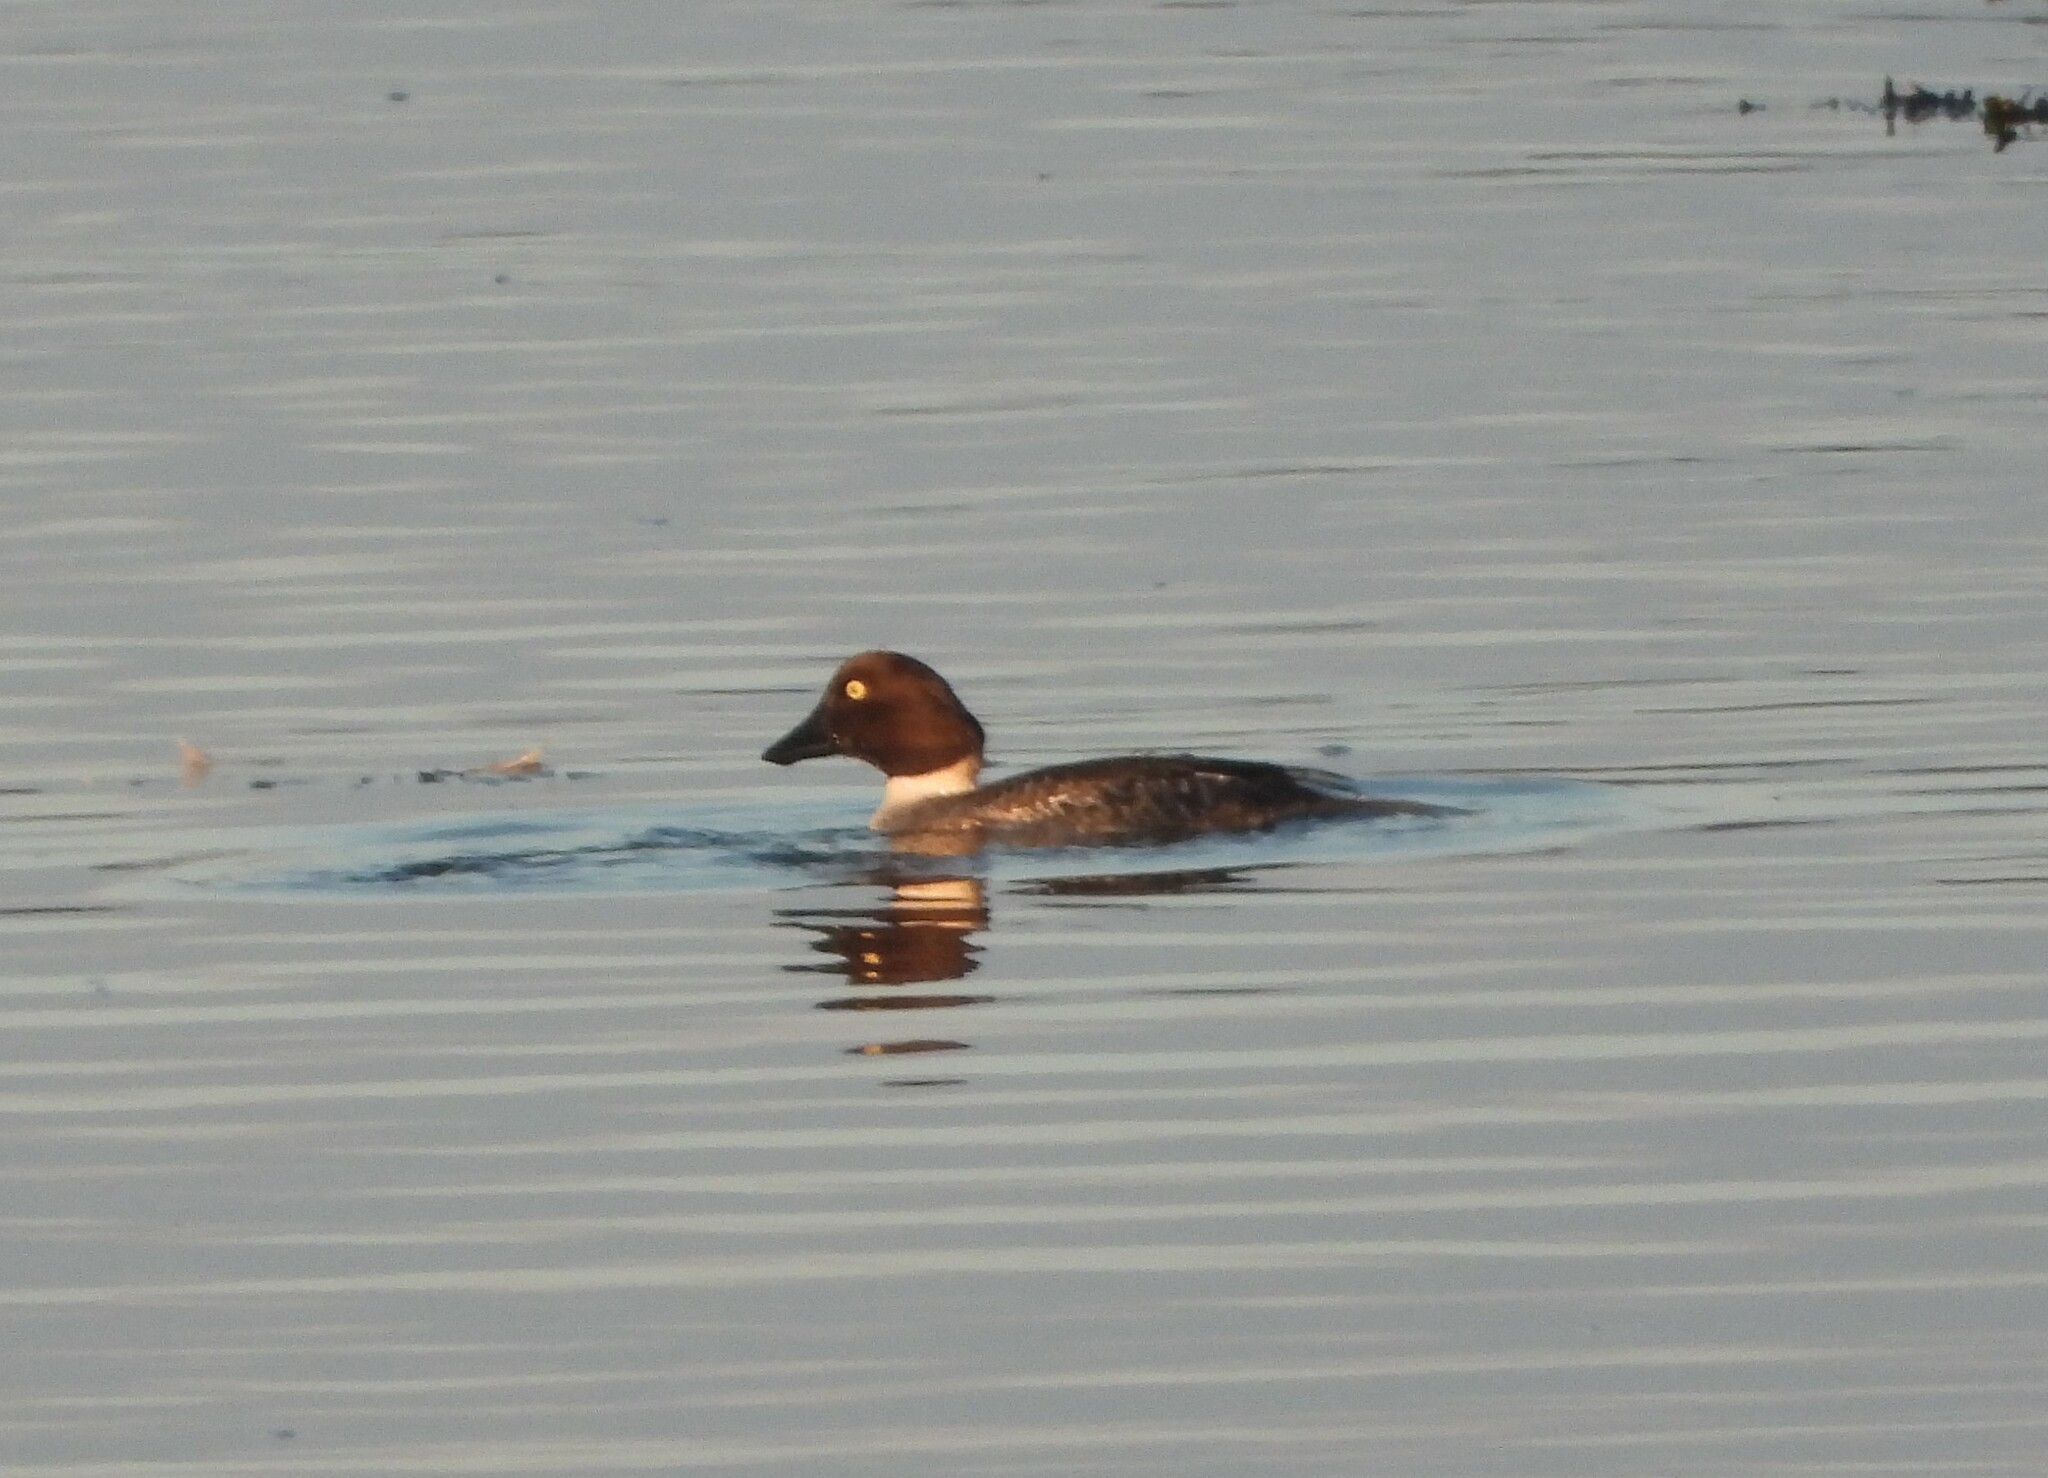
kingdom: Animalia
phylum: Chordata
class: Aves
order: Anseriformes
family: Anatidae
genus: Bucephala
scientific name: Bucephala clangula
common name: Common goldeneye
